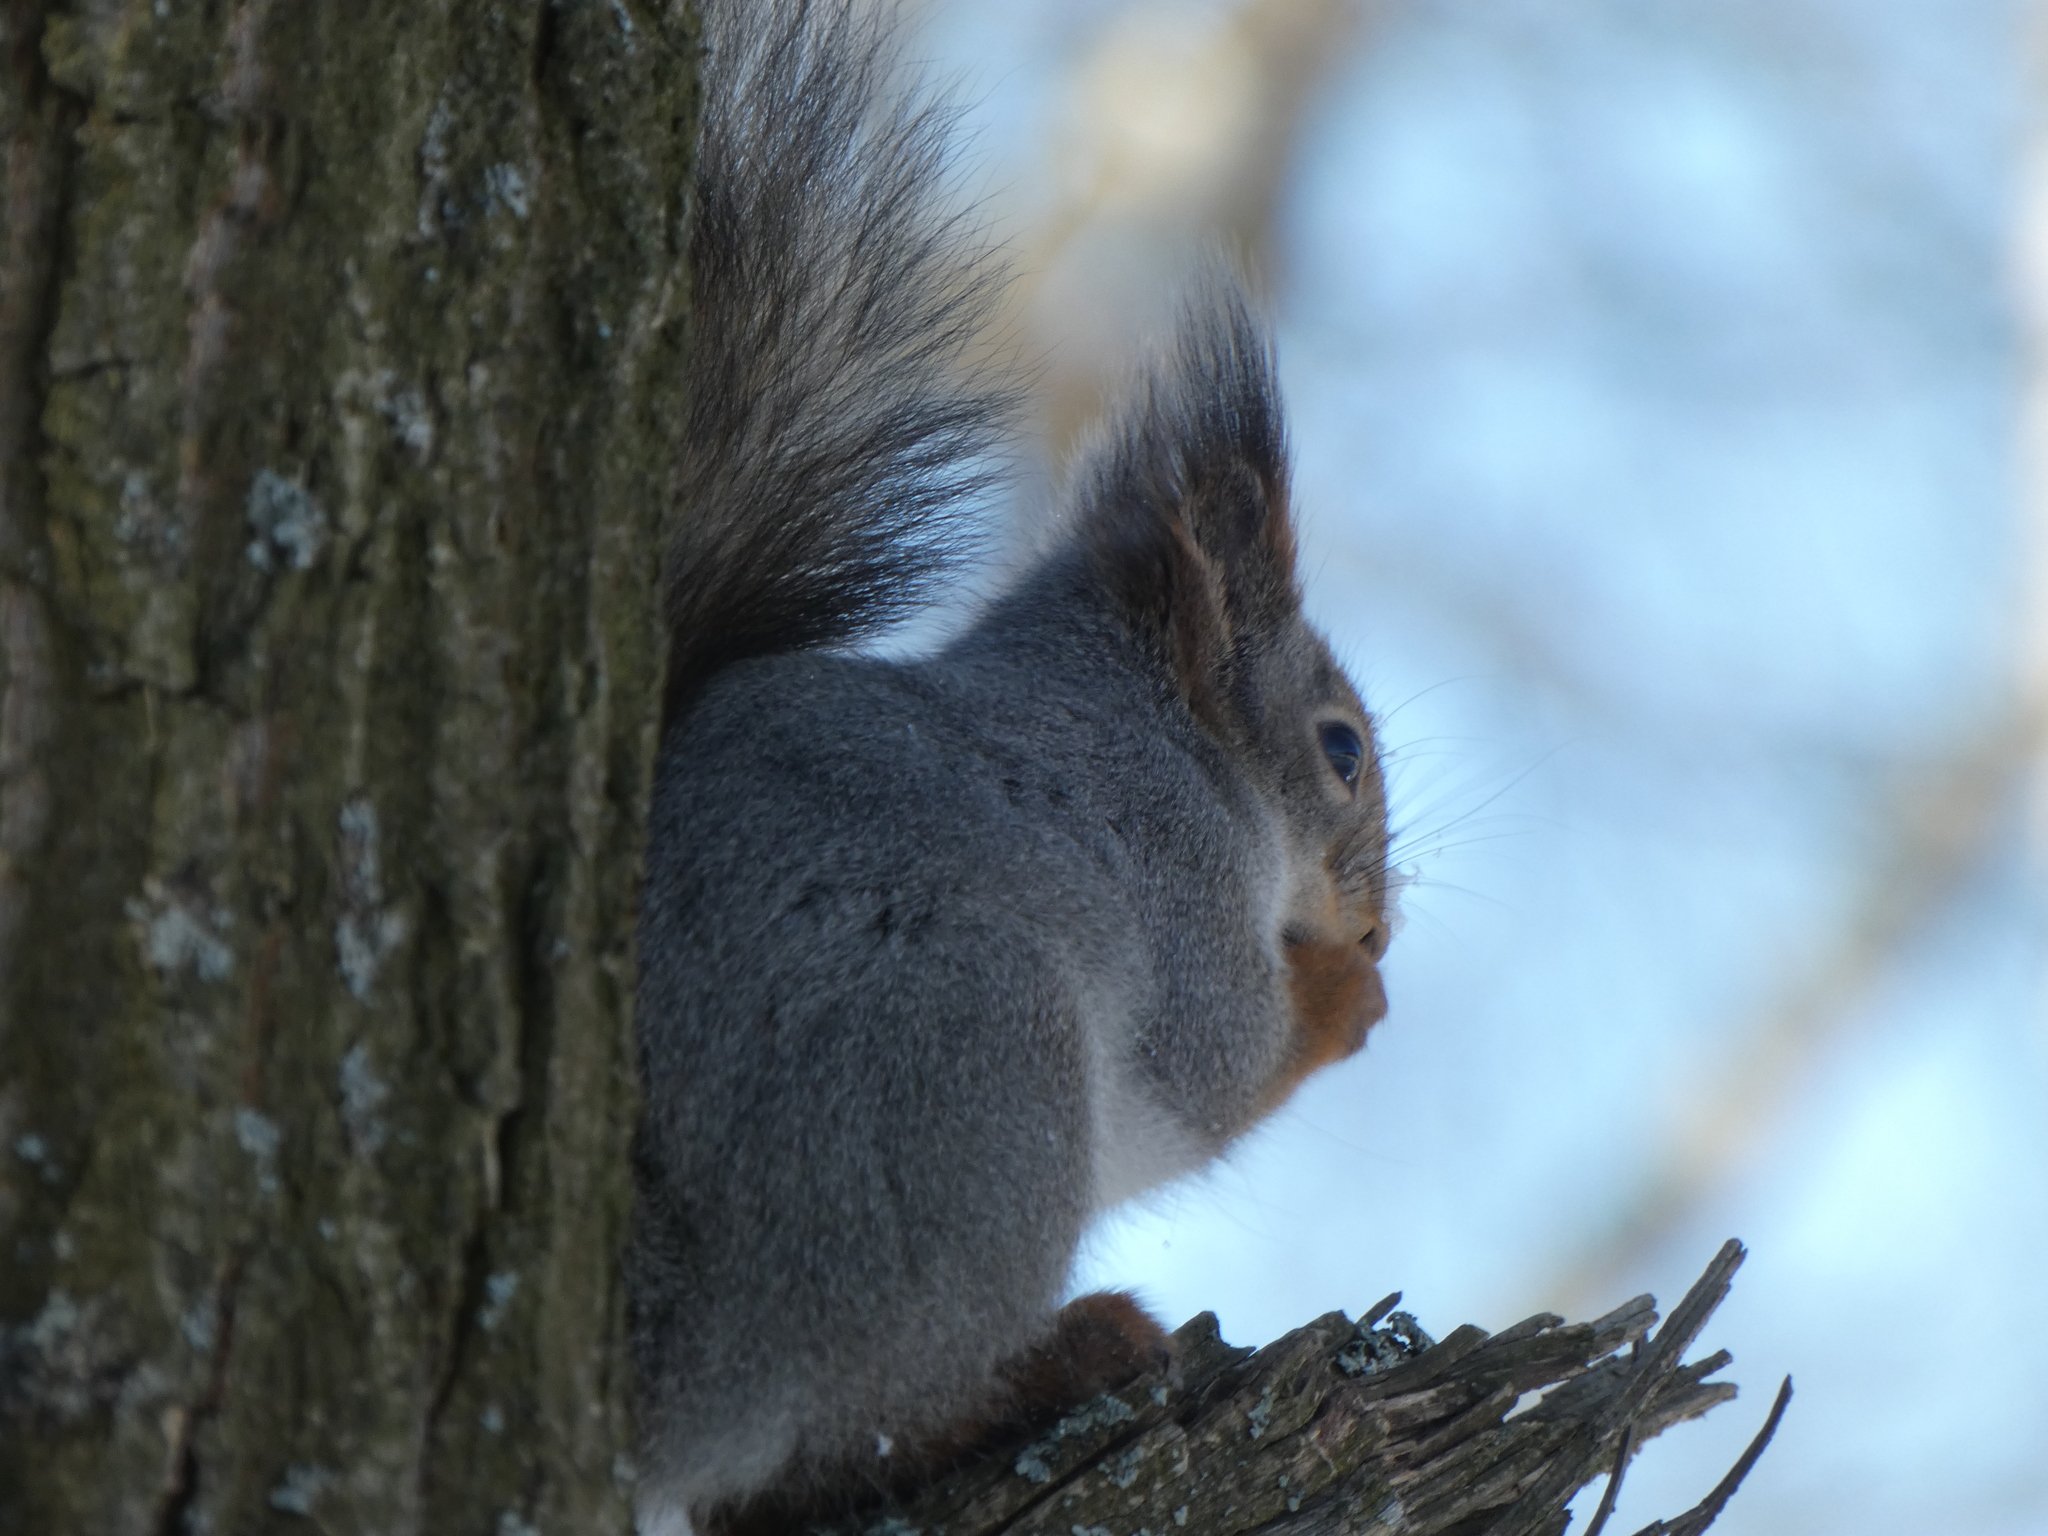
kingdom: Animalia
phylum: Chordata
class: Mammalia
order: Rodentia
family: Sciuridae
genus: Sciurus
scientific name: Sciurus vulgaris
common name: Eurasian red squirrel
